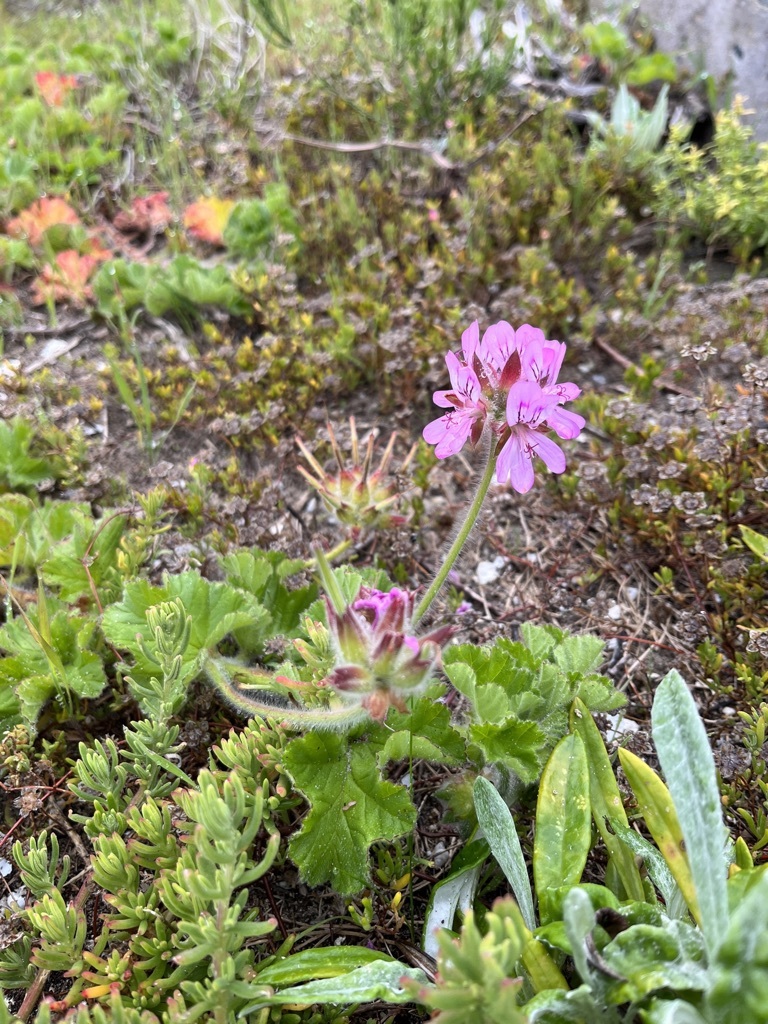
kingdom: Plantae
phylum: Tracheophyta
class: Magnoliopsida
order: Geraniales
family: Geraniaceae
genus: Pelargonium
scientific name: Pelargonium capitatum
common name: Rose scented geranium
